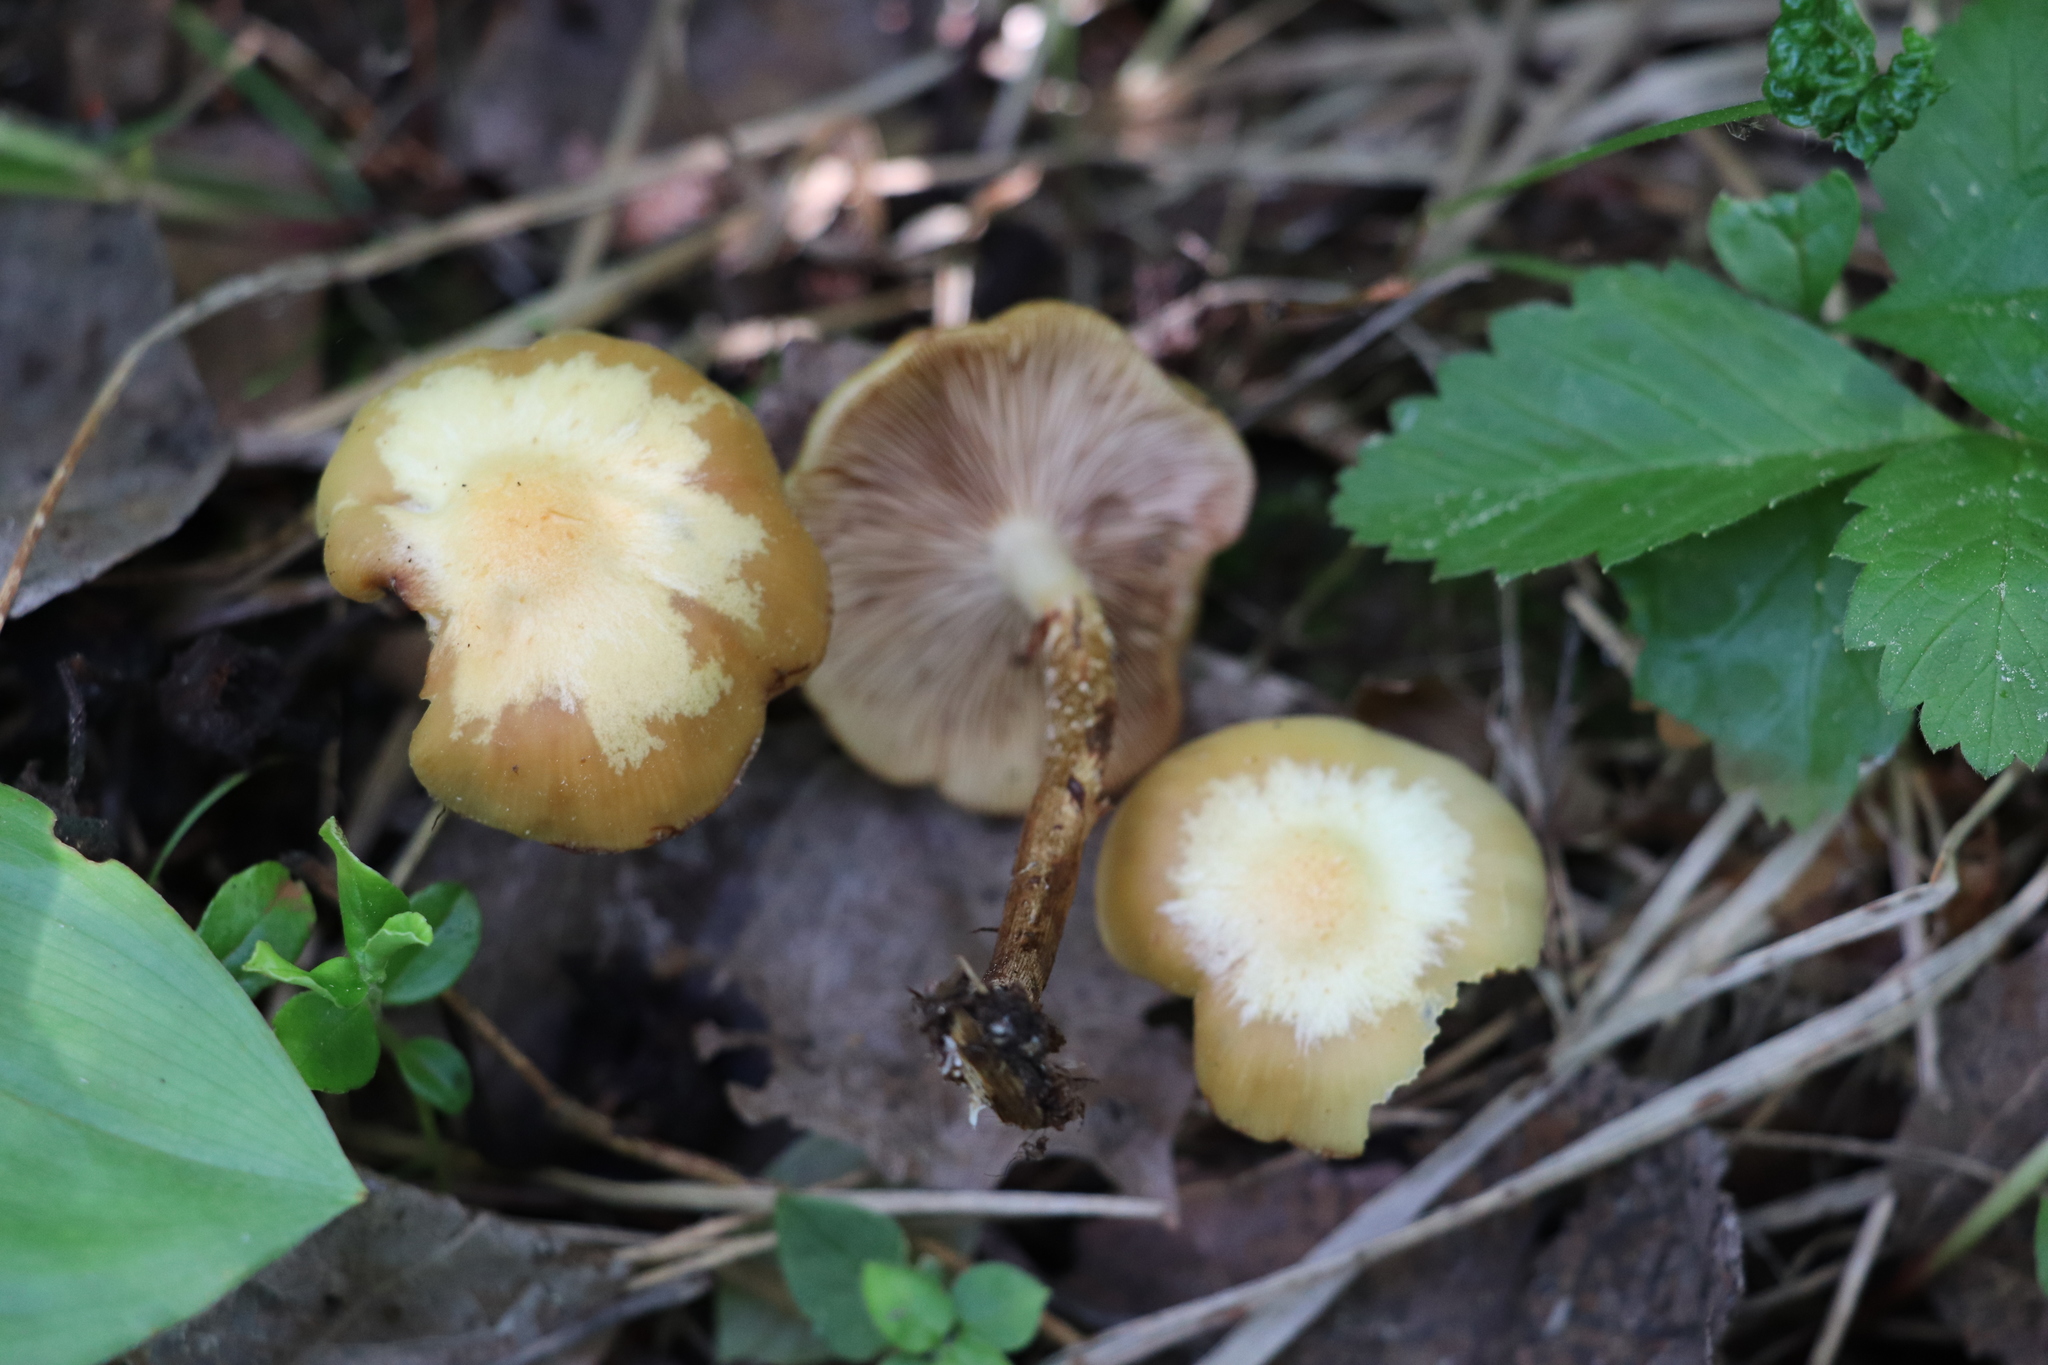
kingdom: Fungi
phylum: Basidiomycota
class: Agaricomycetes
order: Agaricales
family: Strophariaceae
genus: Kuehneromyces
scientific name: Kuehneromyces mutabilis
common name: Sheathed woodtuft
